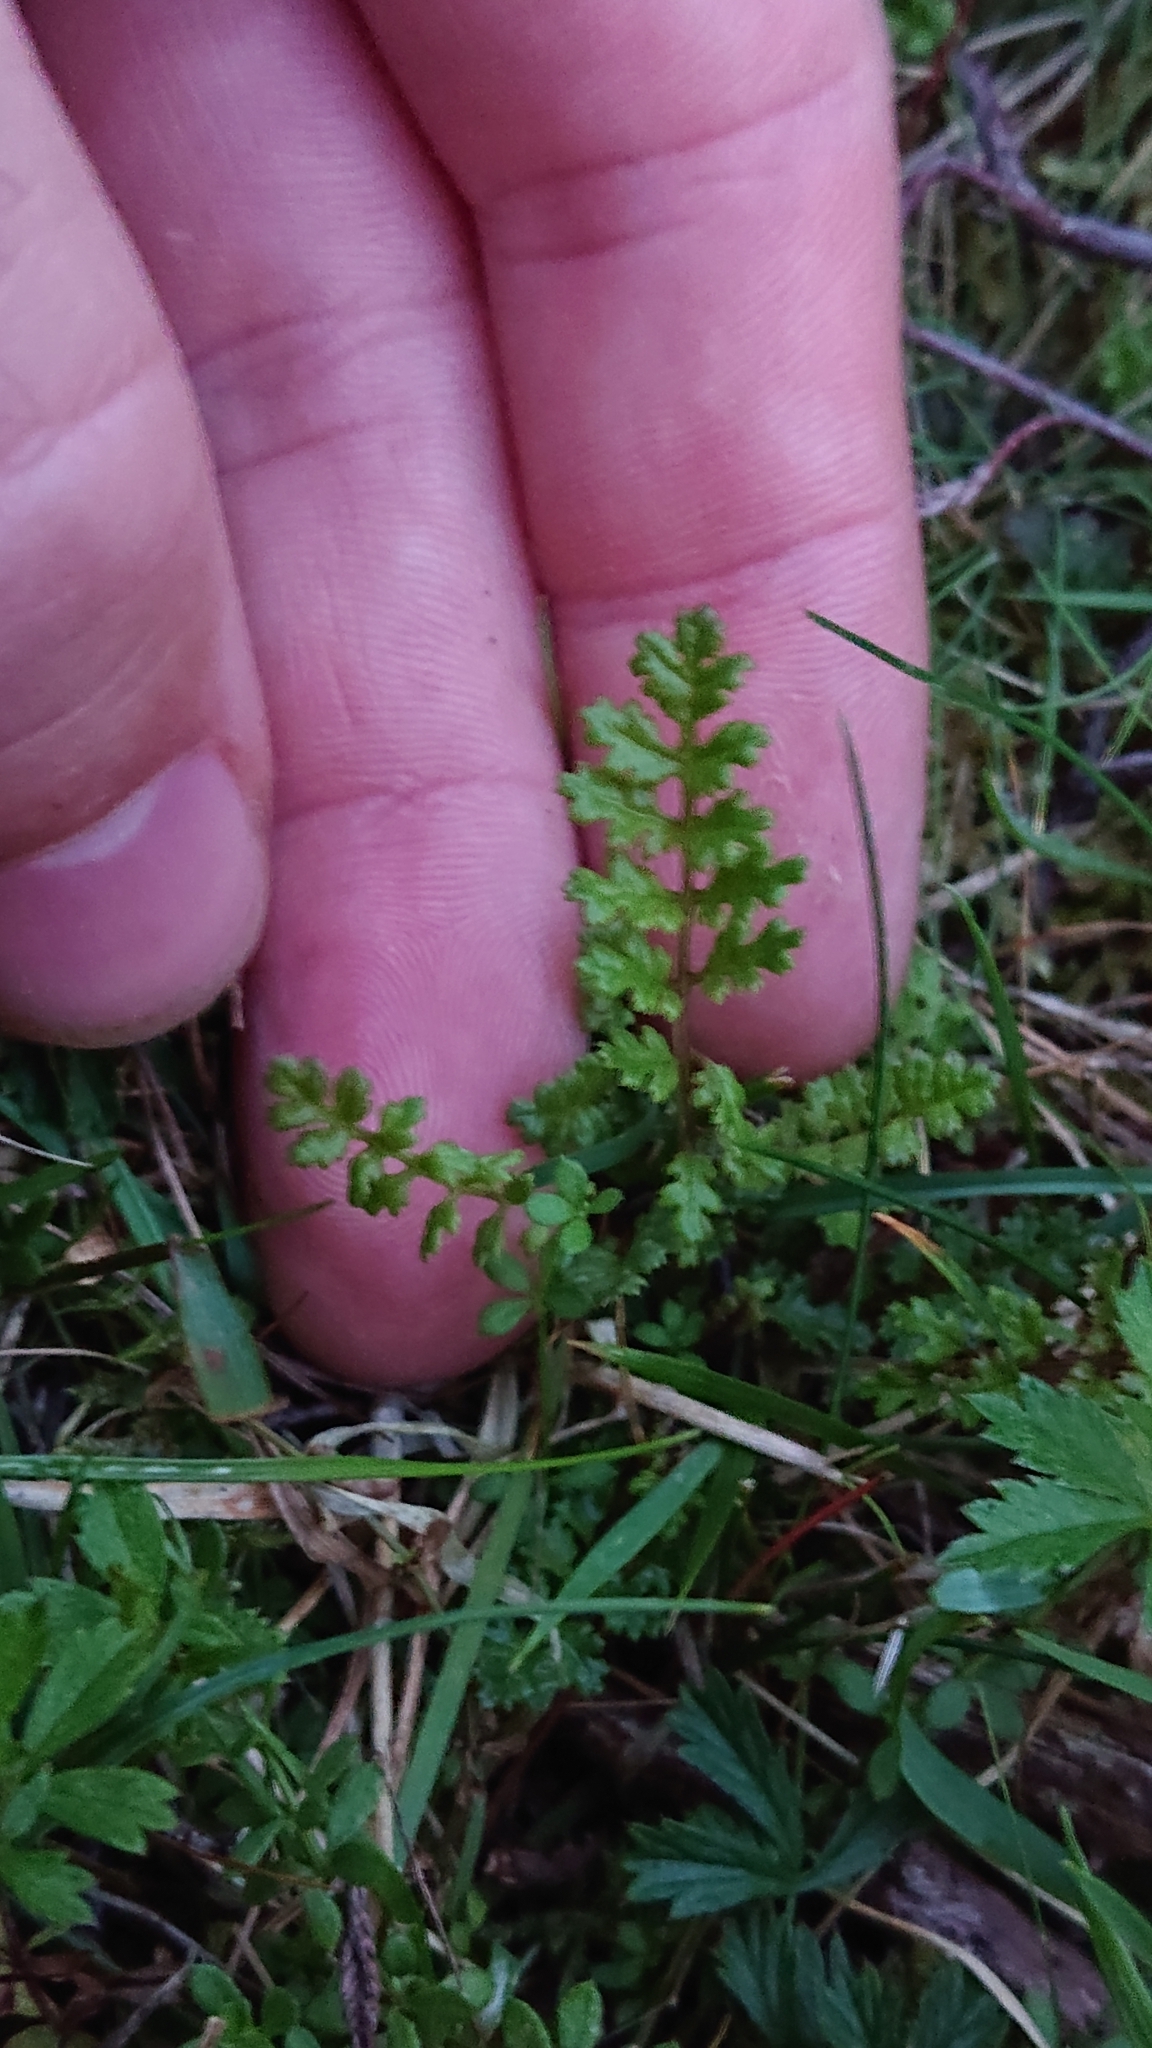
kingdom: Plantae
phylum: Tracheophyta
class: Magnoliopsida
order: Lamiales
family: Orobanchaceae
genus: Pedicularis
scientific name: Pedicularis sylvatica
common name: Lousewort
